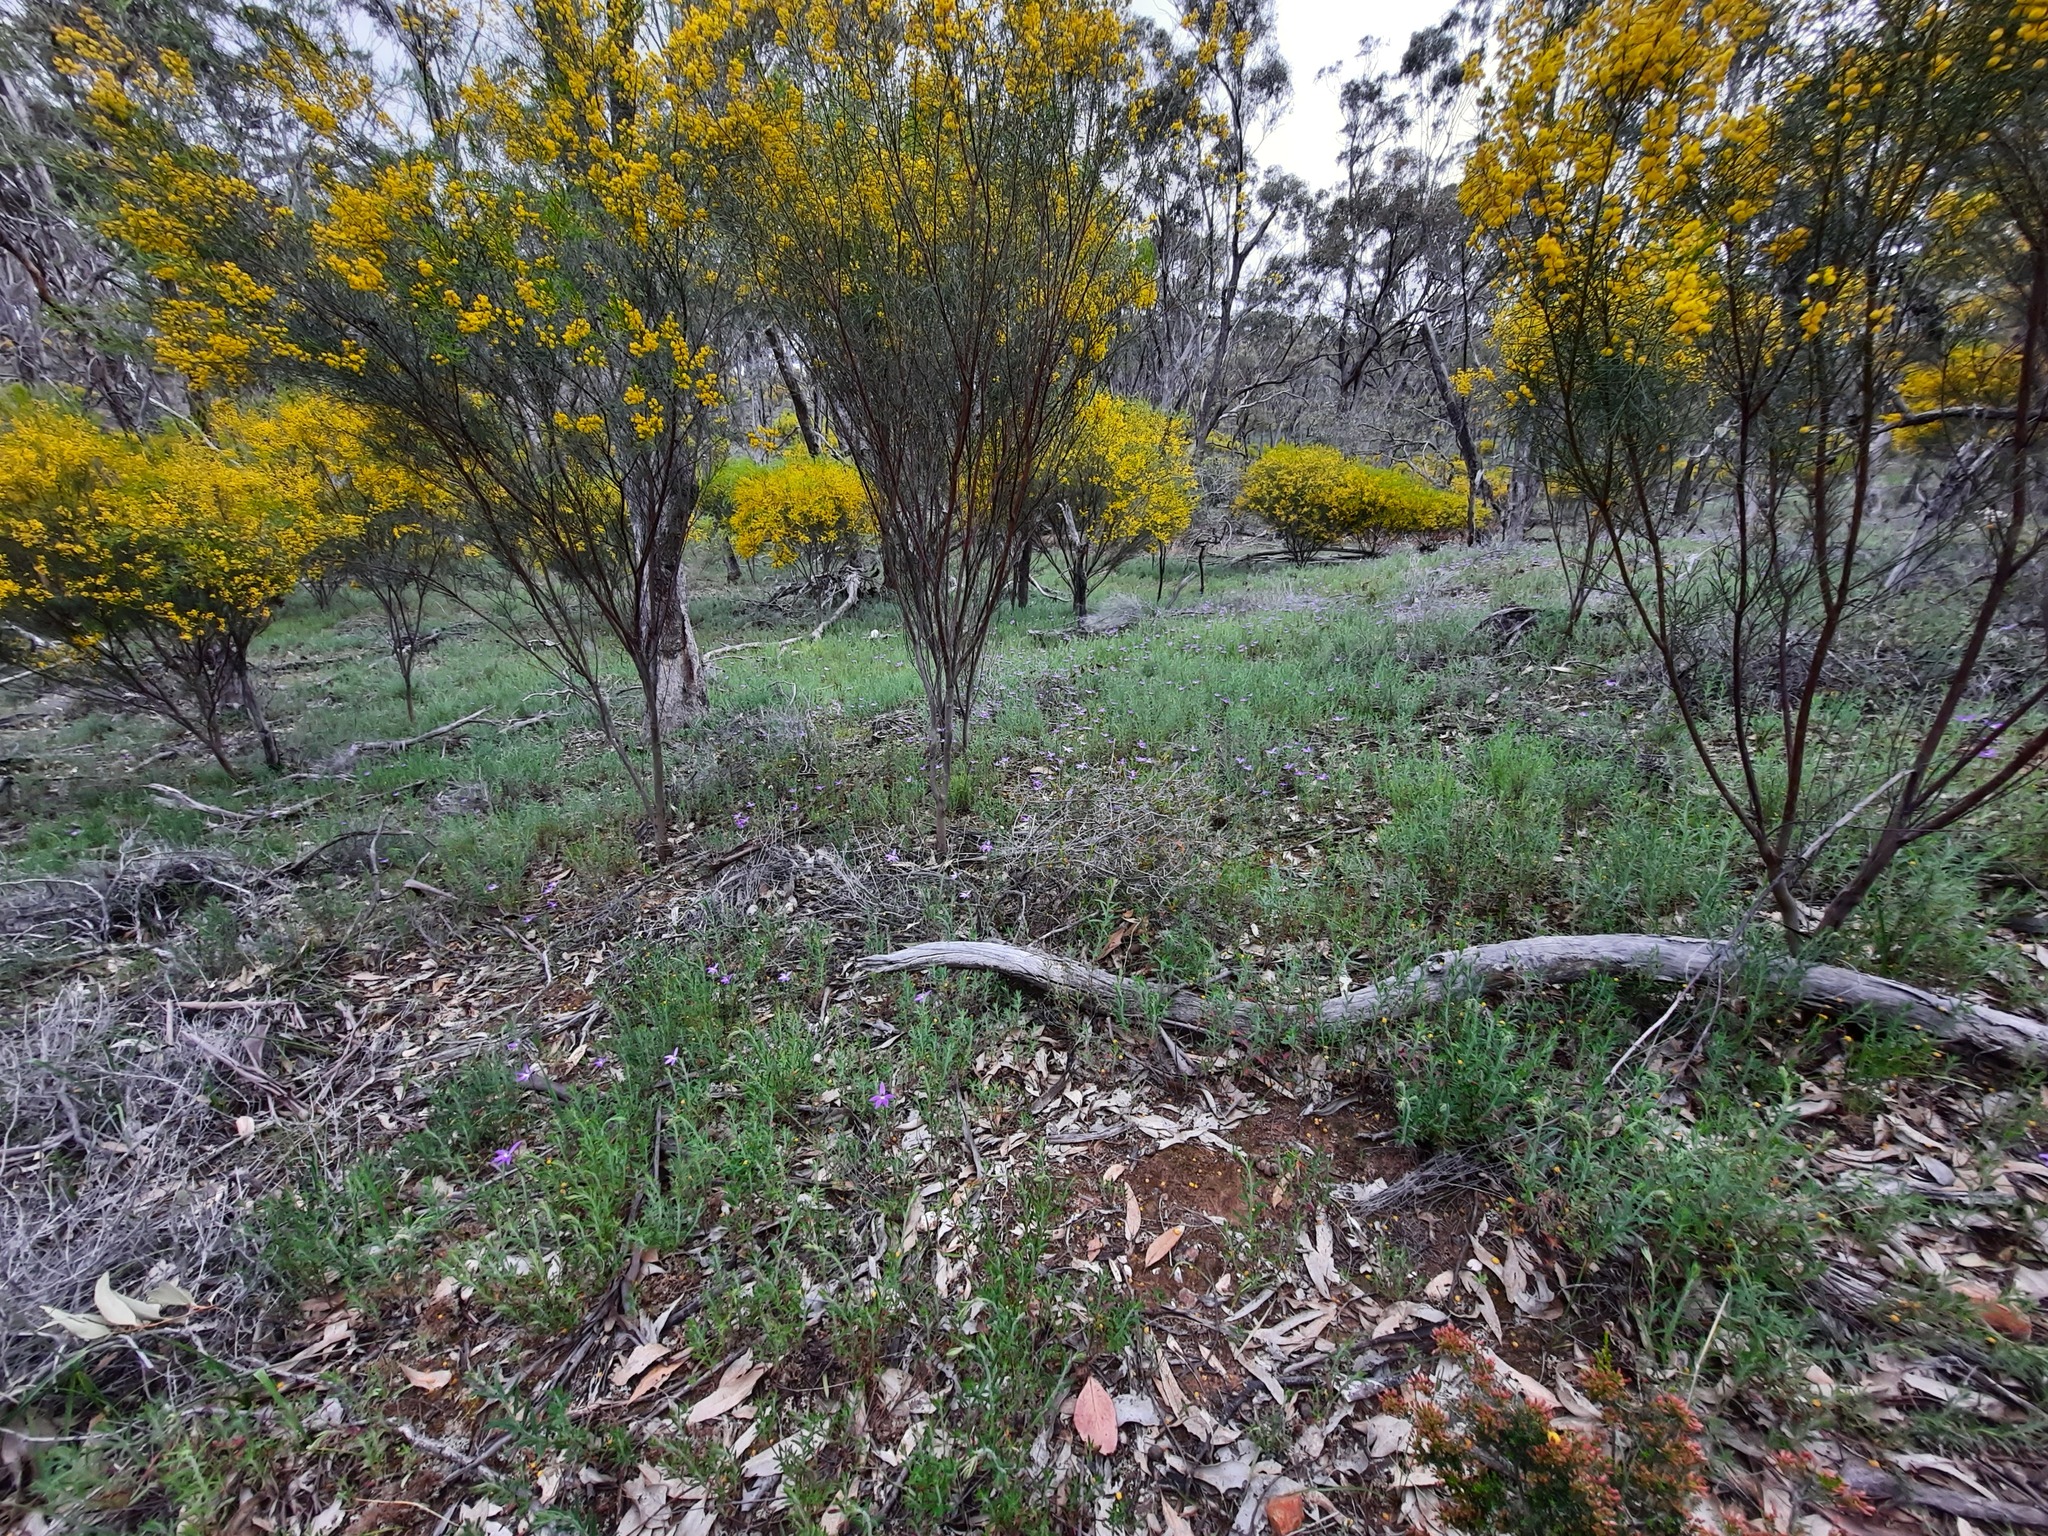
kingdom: Plantae
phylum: Tracheophyta
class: Liliopsida
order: Asparagales
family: Orchidaceae
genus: Caladenia
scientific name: Caladenia major
